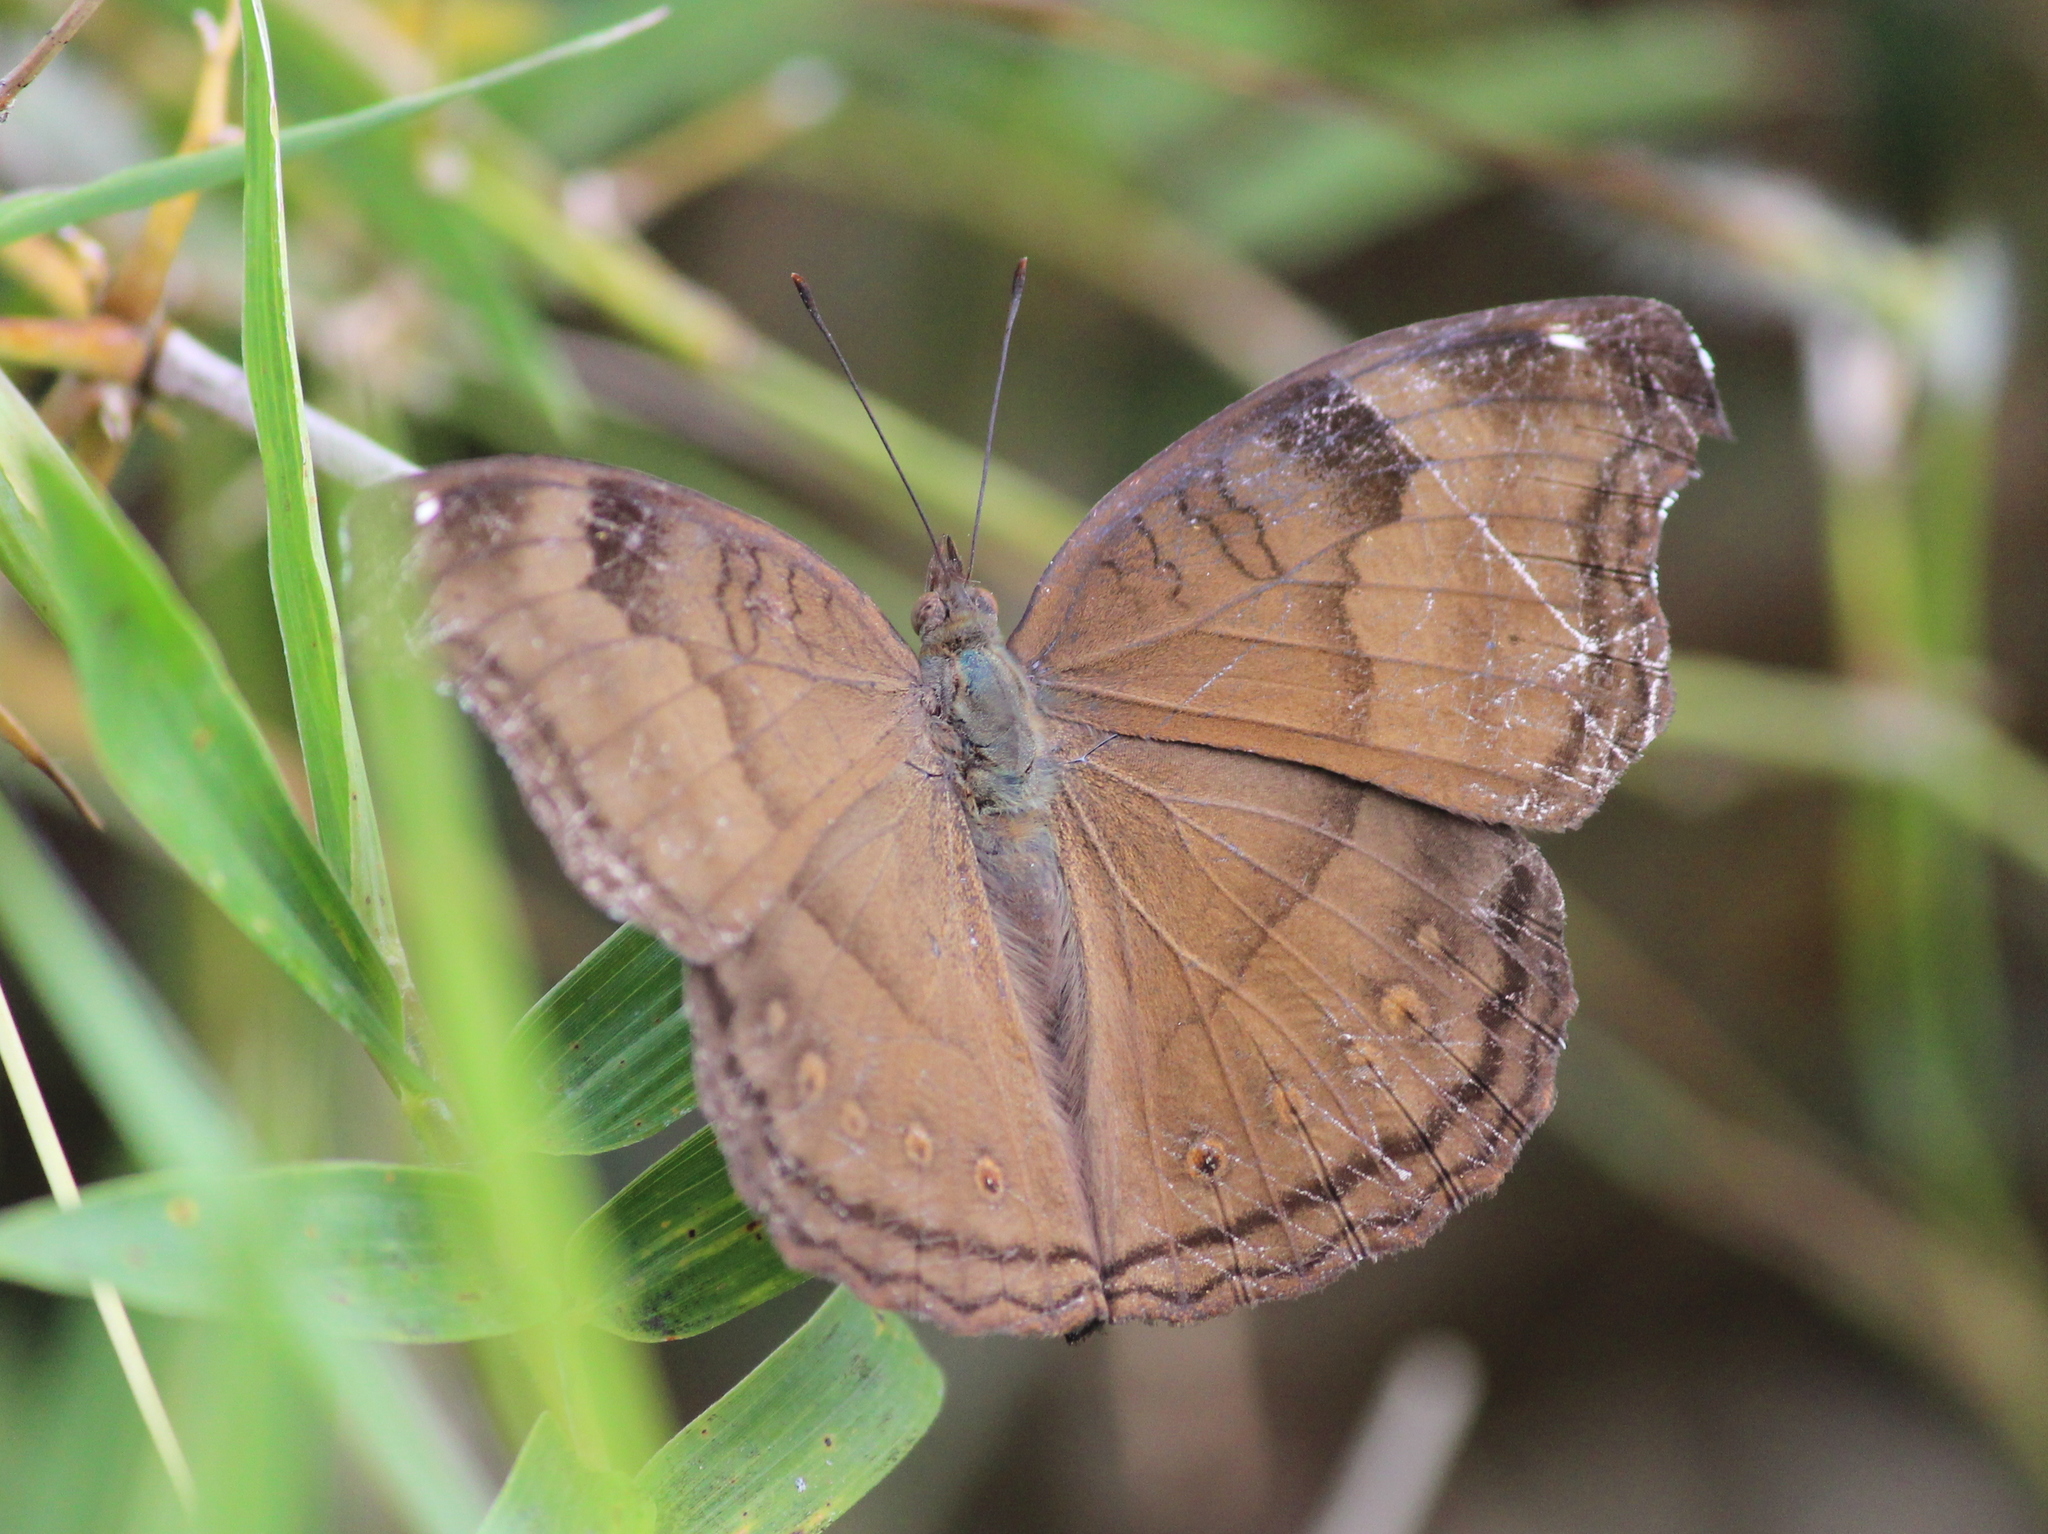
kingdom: Animalia
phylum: Arthropoda
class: Insecta
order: Lepidoptera
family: Nymphalidae
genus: Junonia
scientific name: Junonia iphita
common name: Chocolate pansy
